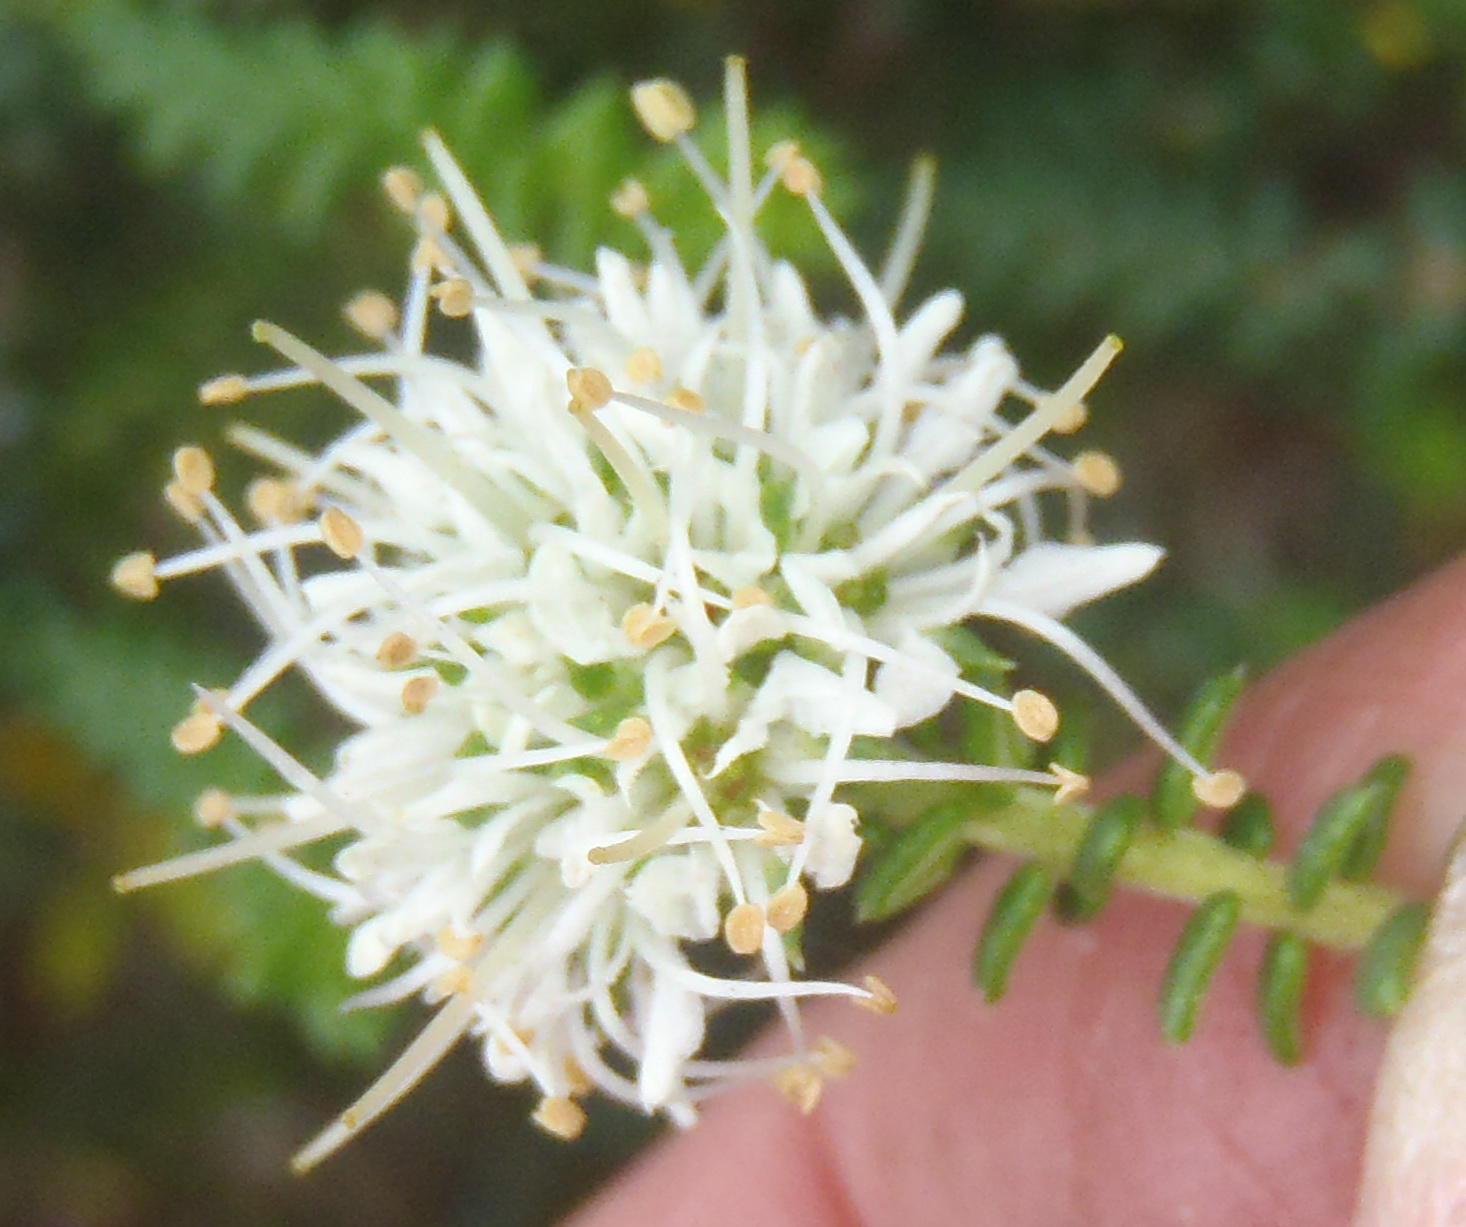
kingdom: Plantae
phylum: Tracheophyta
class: Magnoliopsida
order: Sapindales
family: Rutaceae
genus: Agathosma
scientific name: Agathosma apiculata
